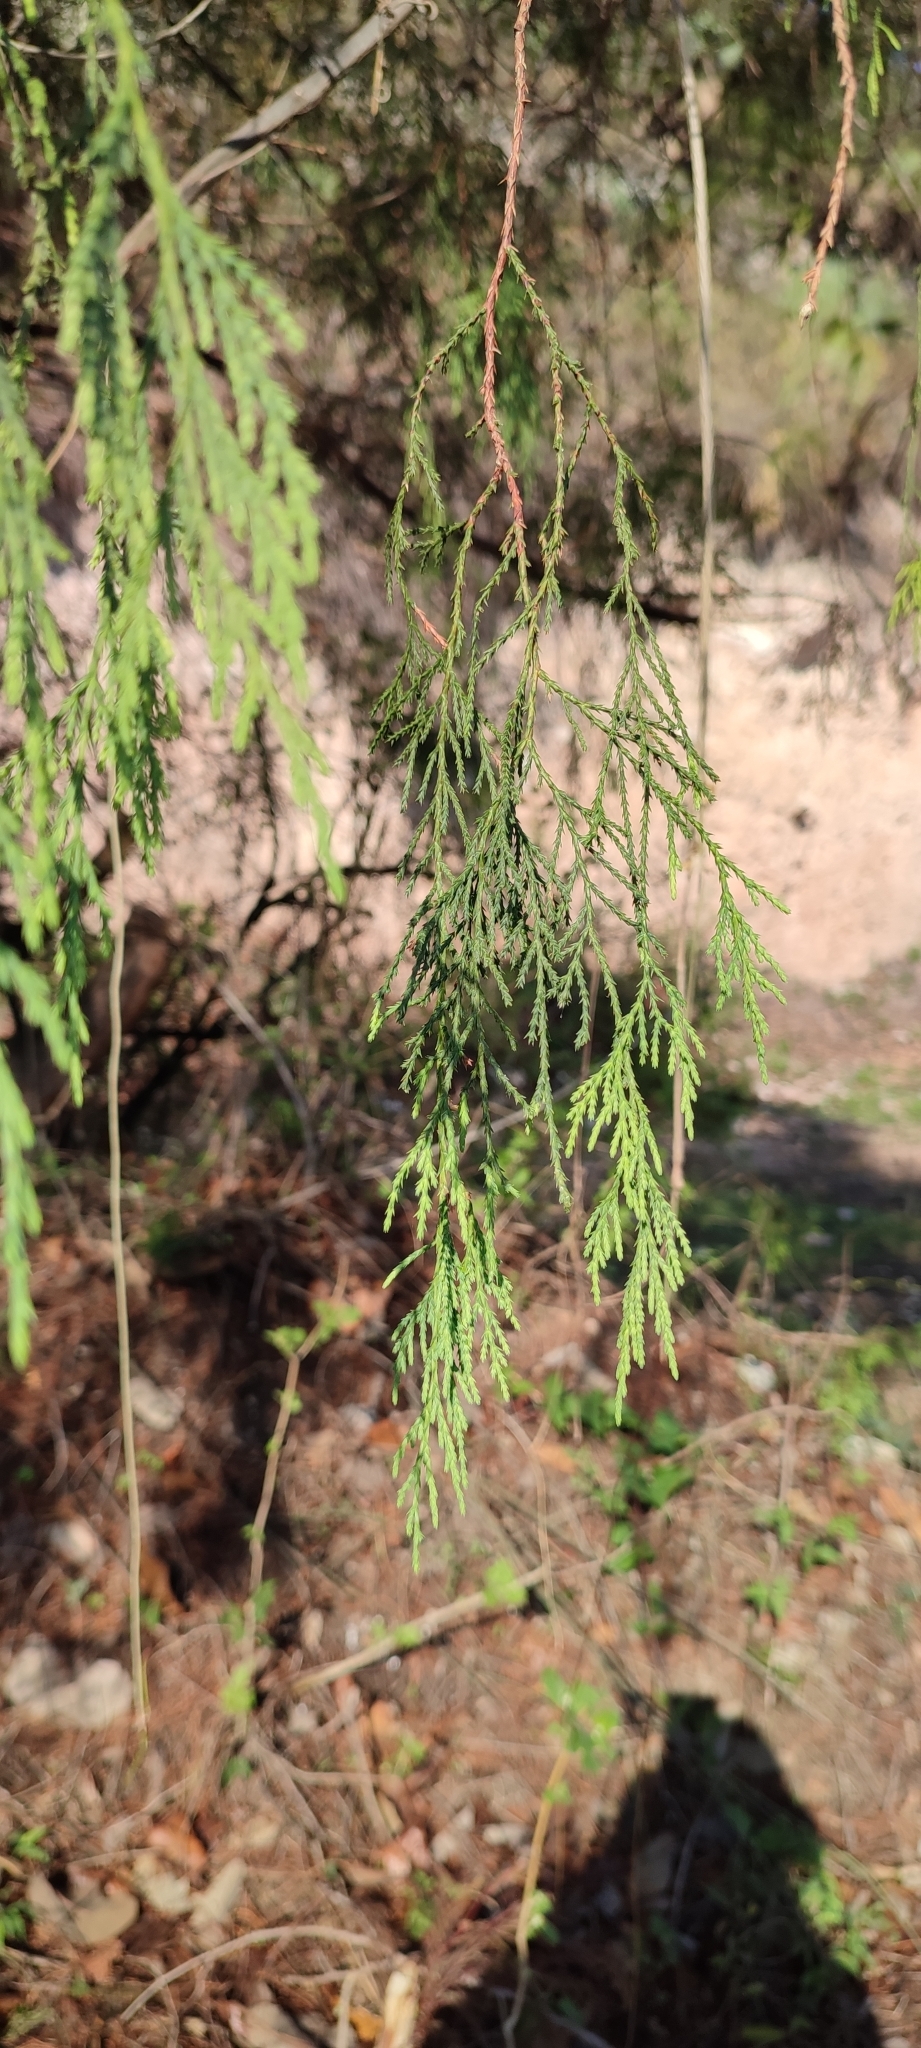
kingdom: Plantae
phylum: Tracheophyta
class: Pinopsida
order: Pinales
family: Cupressaceae
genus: Juniperus
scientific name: Juniperus flaccida
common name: Drooping juniper
